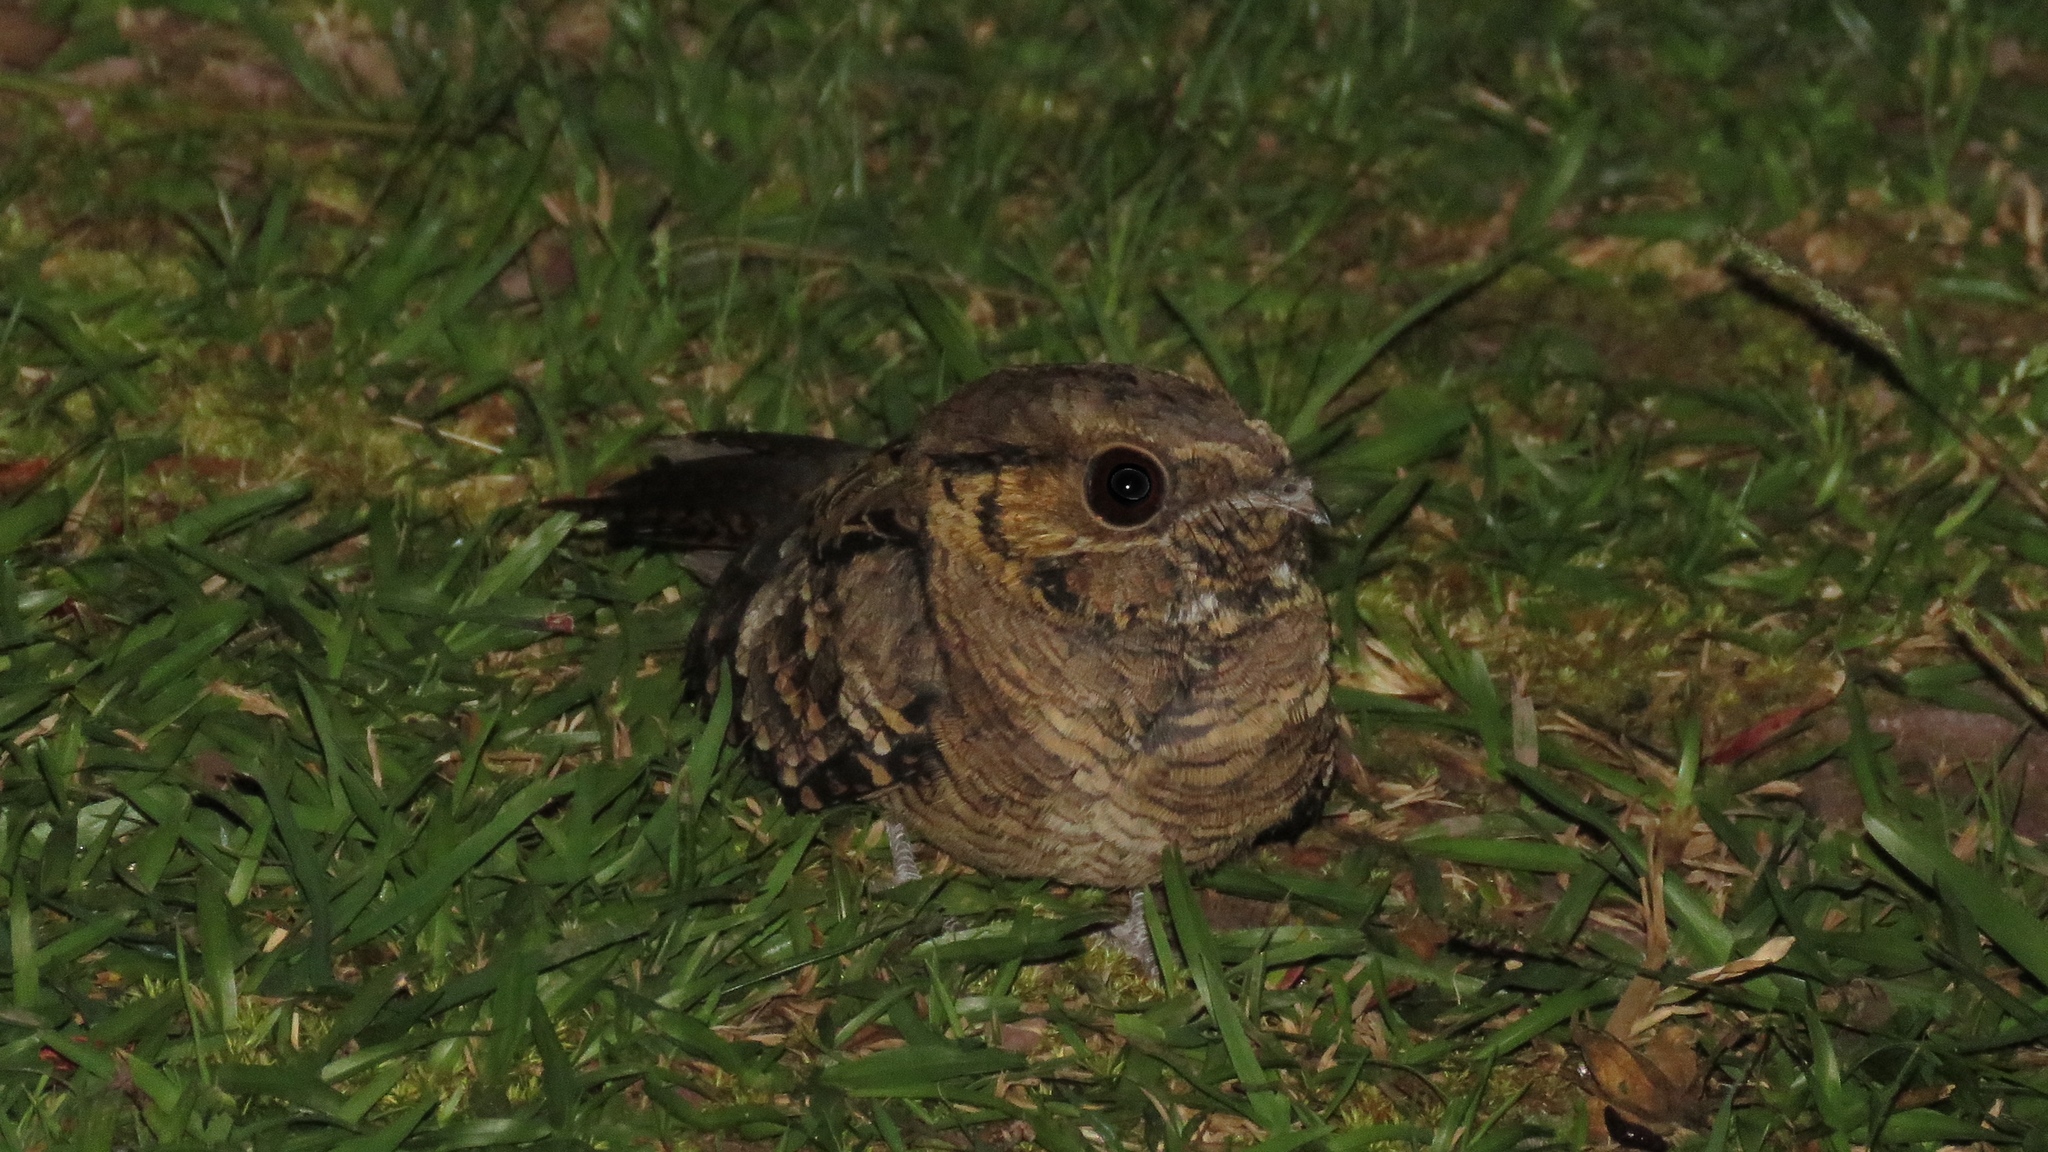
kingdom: Animalia
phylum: Chordata
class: Aves
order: Caprimulgiformes
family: Caprimulgidae
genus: Nyctidromus
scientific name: Nyctidromus albicollis
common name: Pauraque
